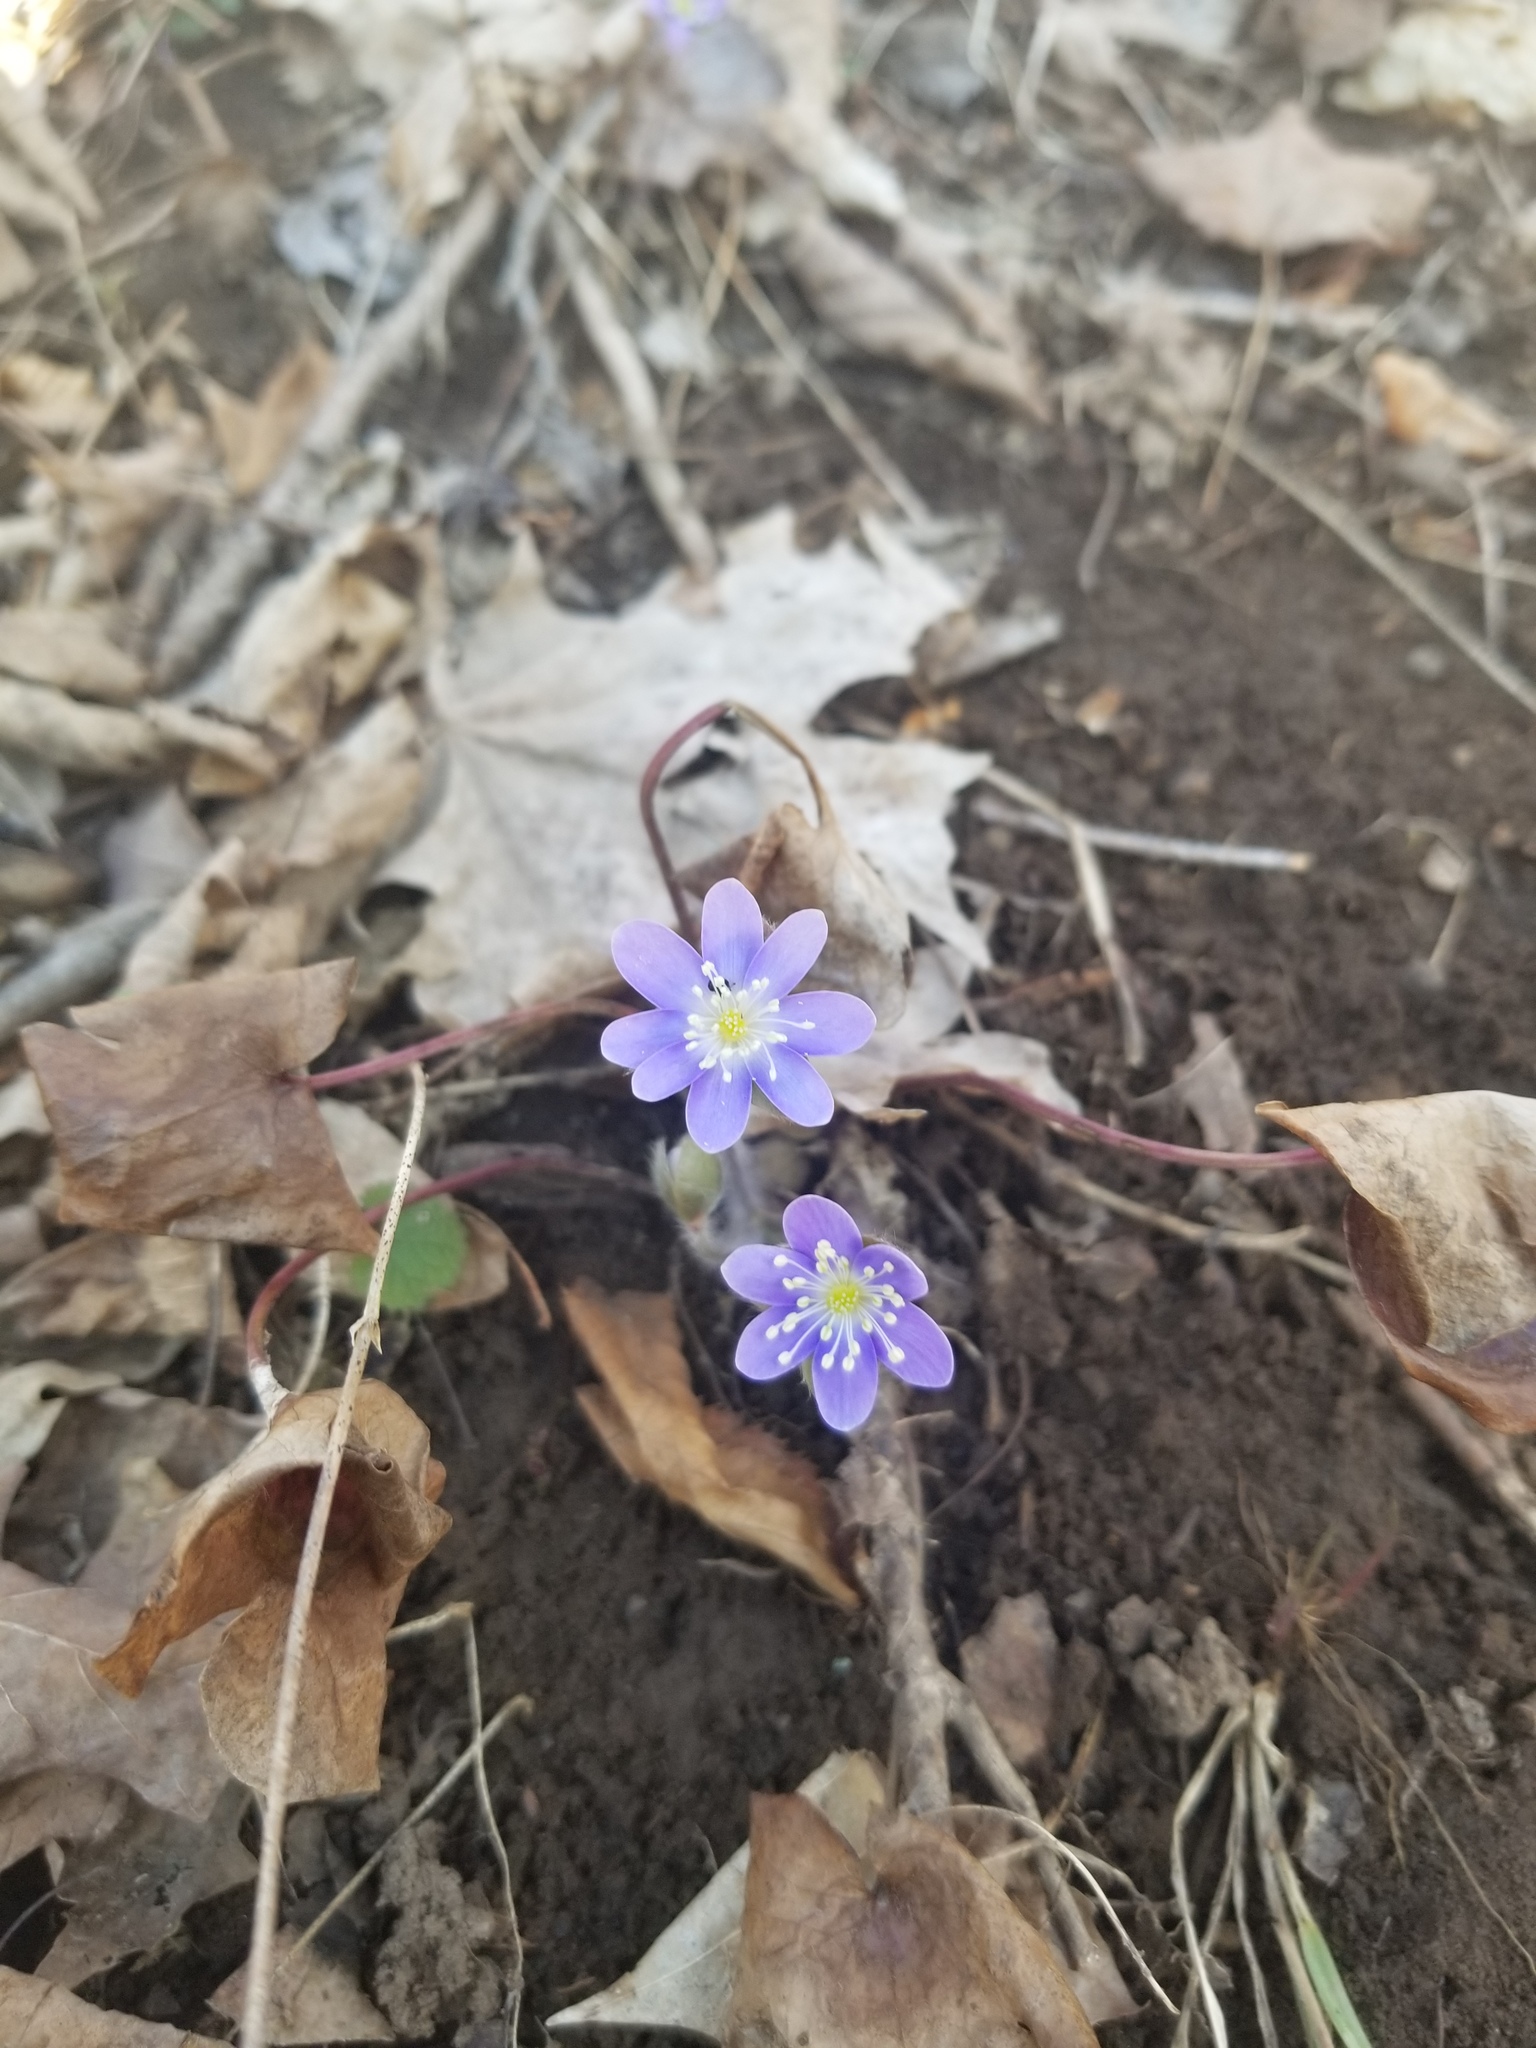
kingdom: Plantae
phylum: Tracheophyta
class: Magnoliopsida
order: Ranunculales
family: Ranunculaceae
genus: Hepatica
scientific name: Hepatica americana
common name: American hepatica
